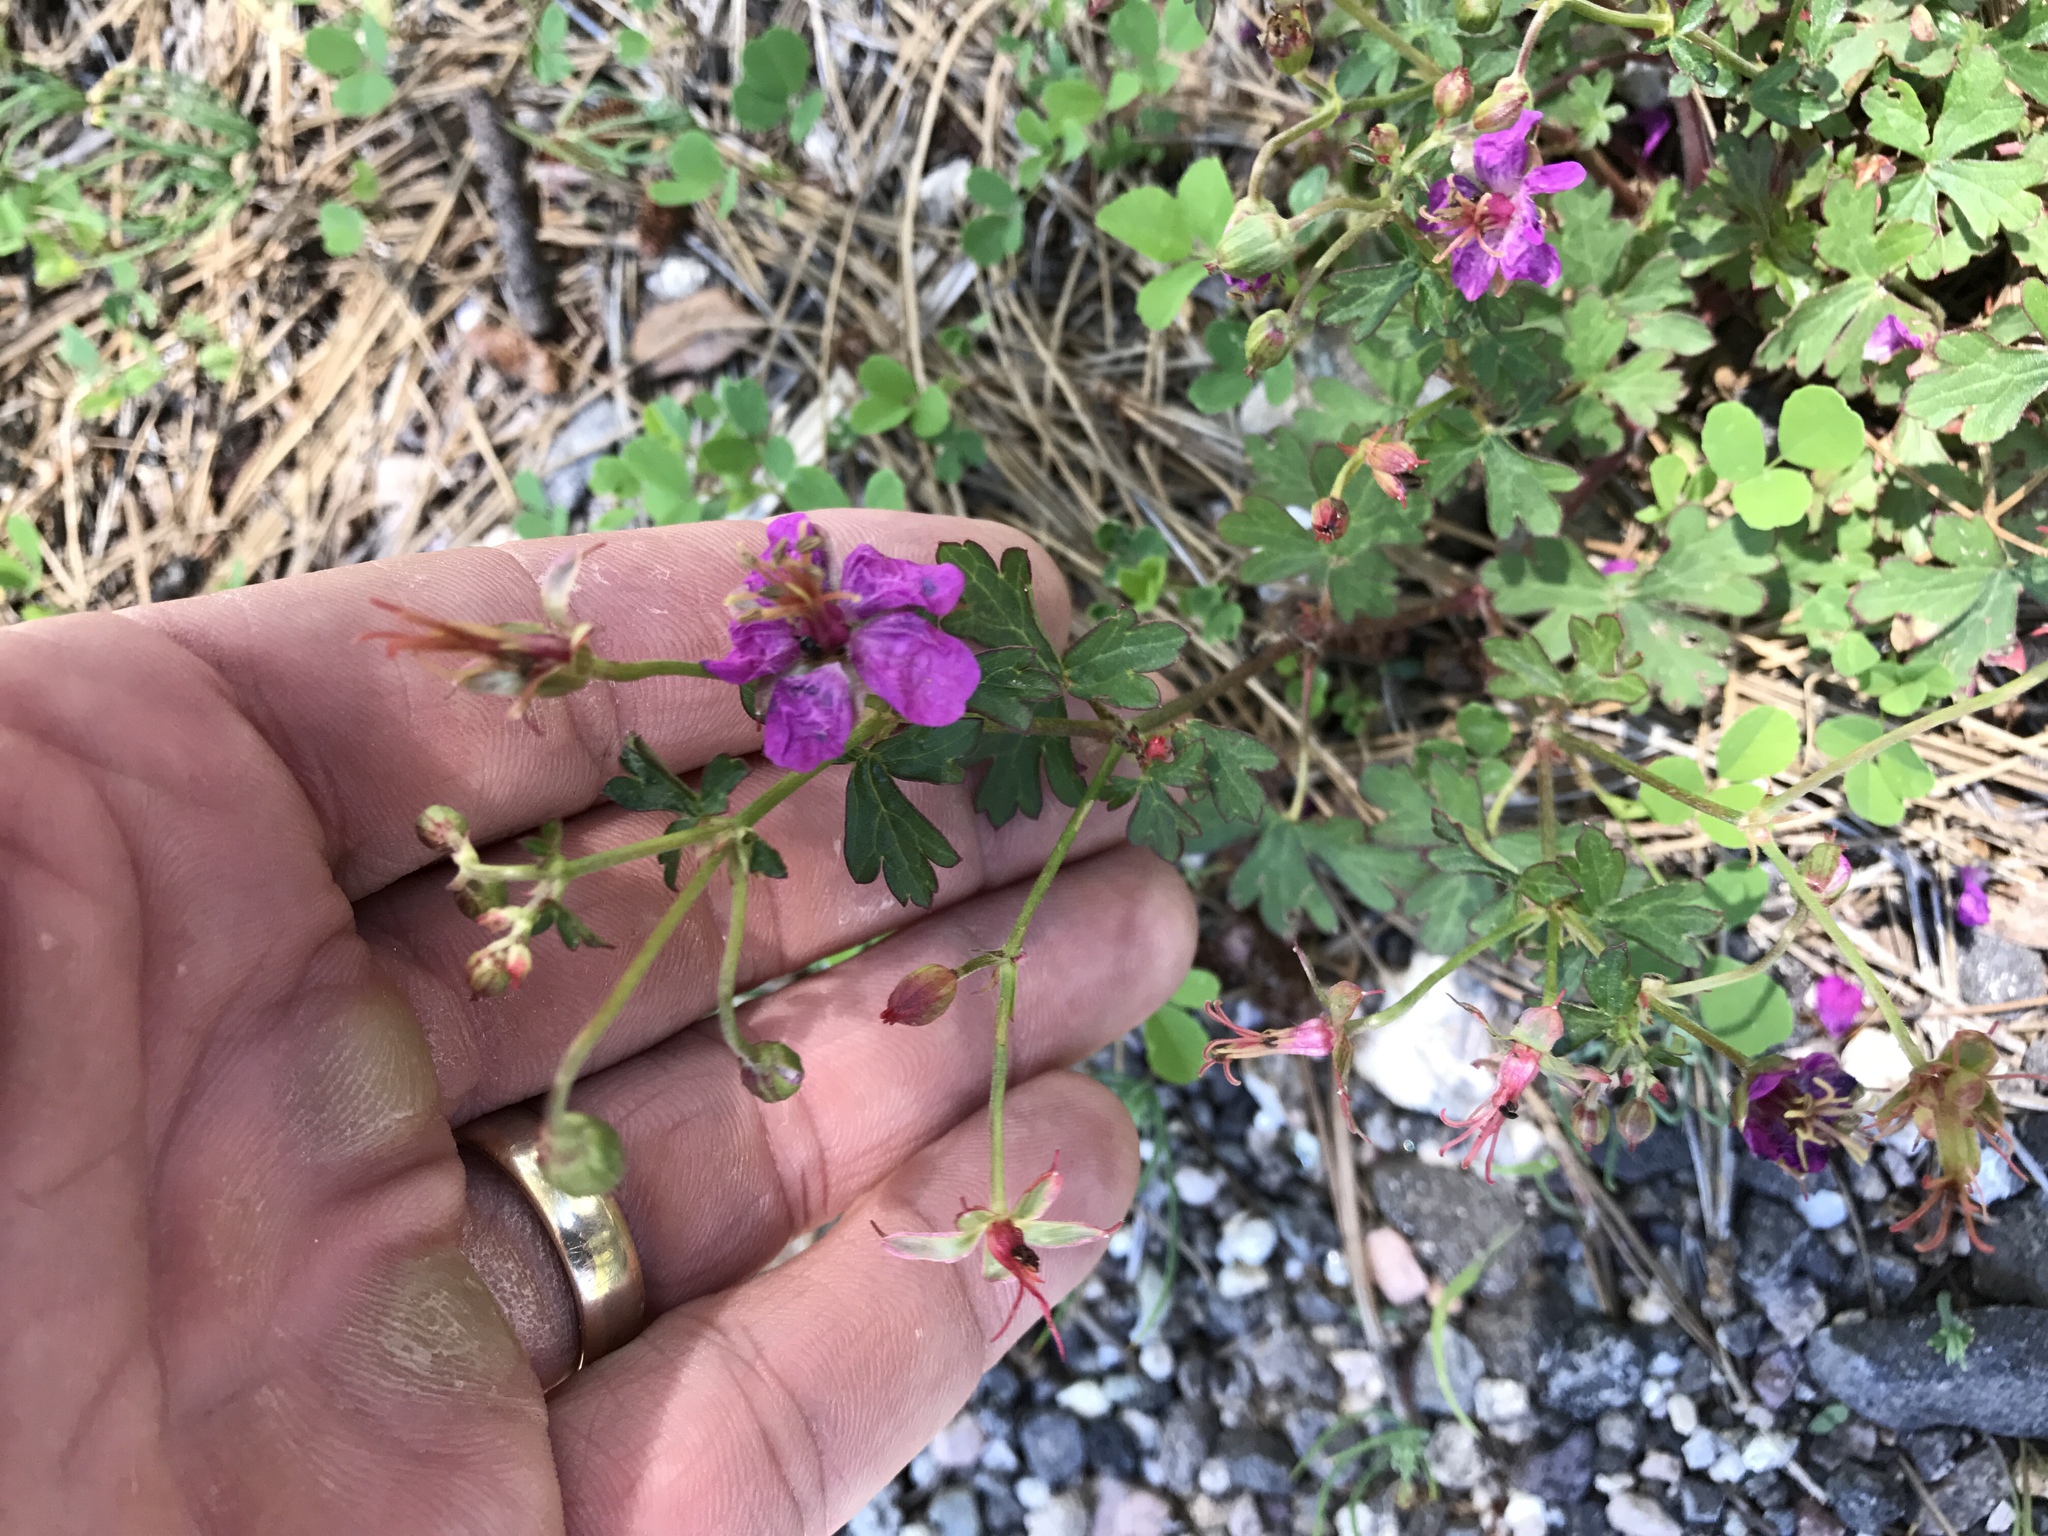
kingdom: Plantae
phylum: Tracheophyta
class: Magnoliopsida
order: Geraniales
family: Geraniaceae
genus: Geranium
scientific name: Geranium caespitosum
